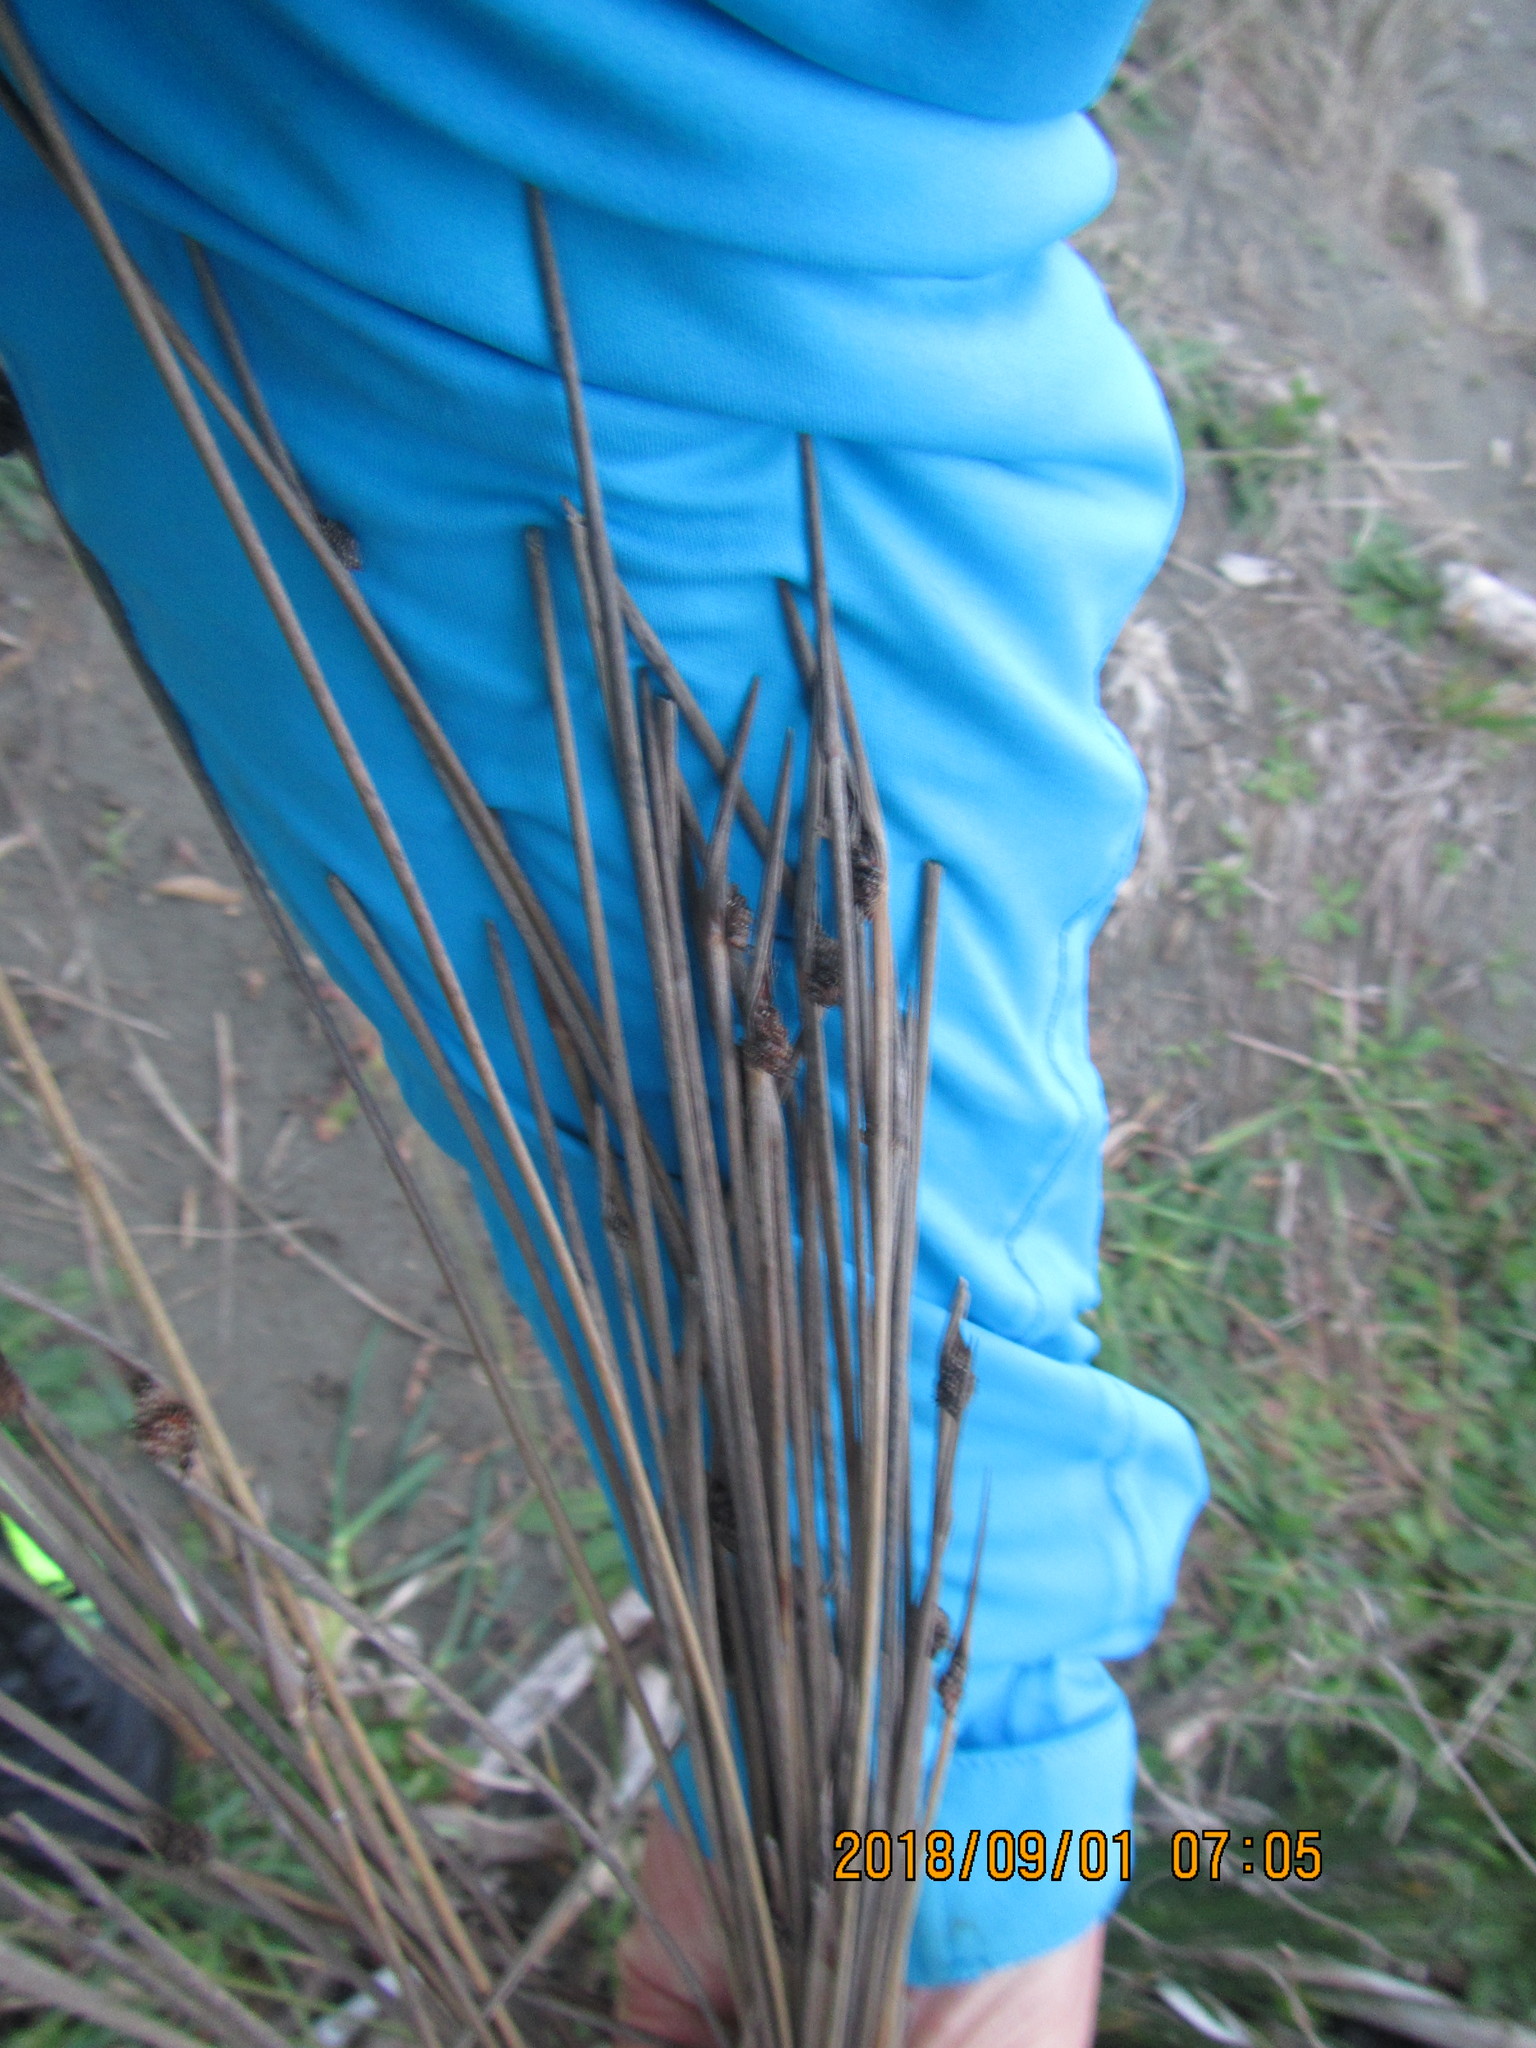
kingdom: Plantae
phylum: Tracheophyta
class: Liliopsida
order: Poales
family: Cyperaceae
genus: Ficinia
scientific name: Ficinia nodosa
